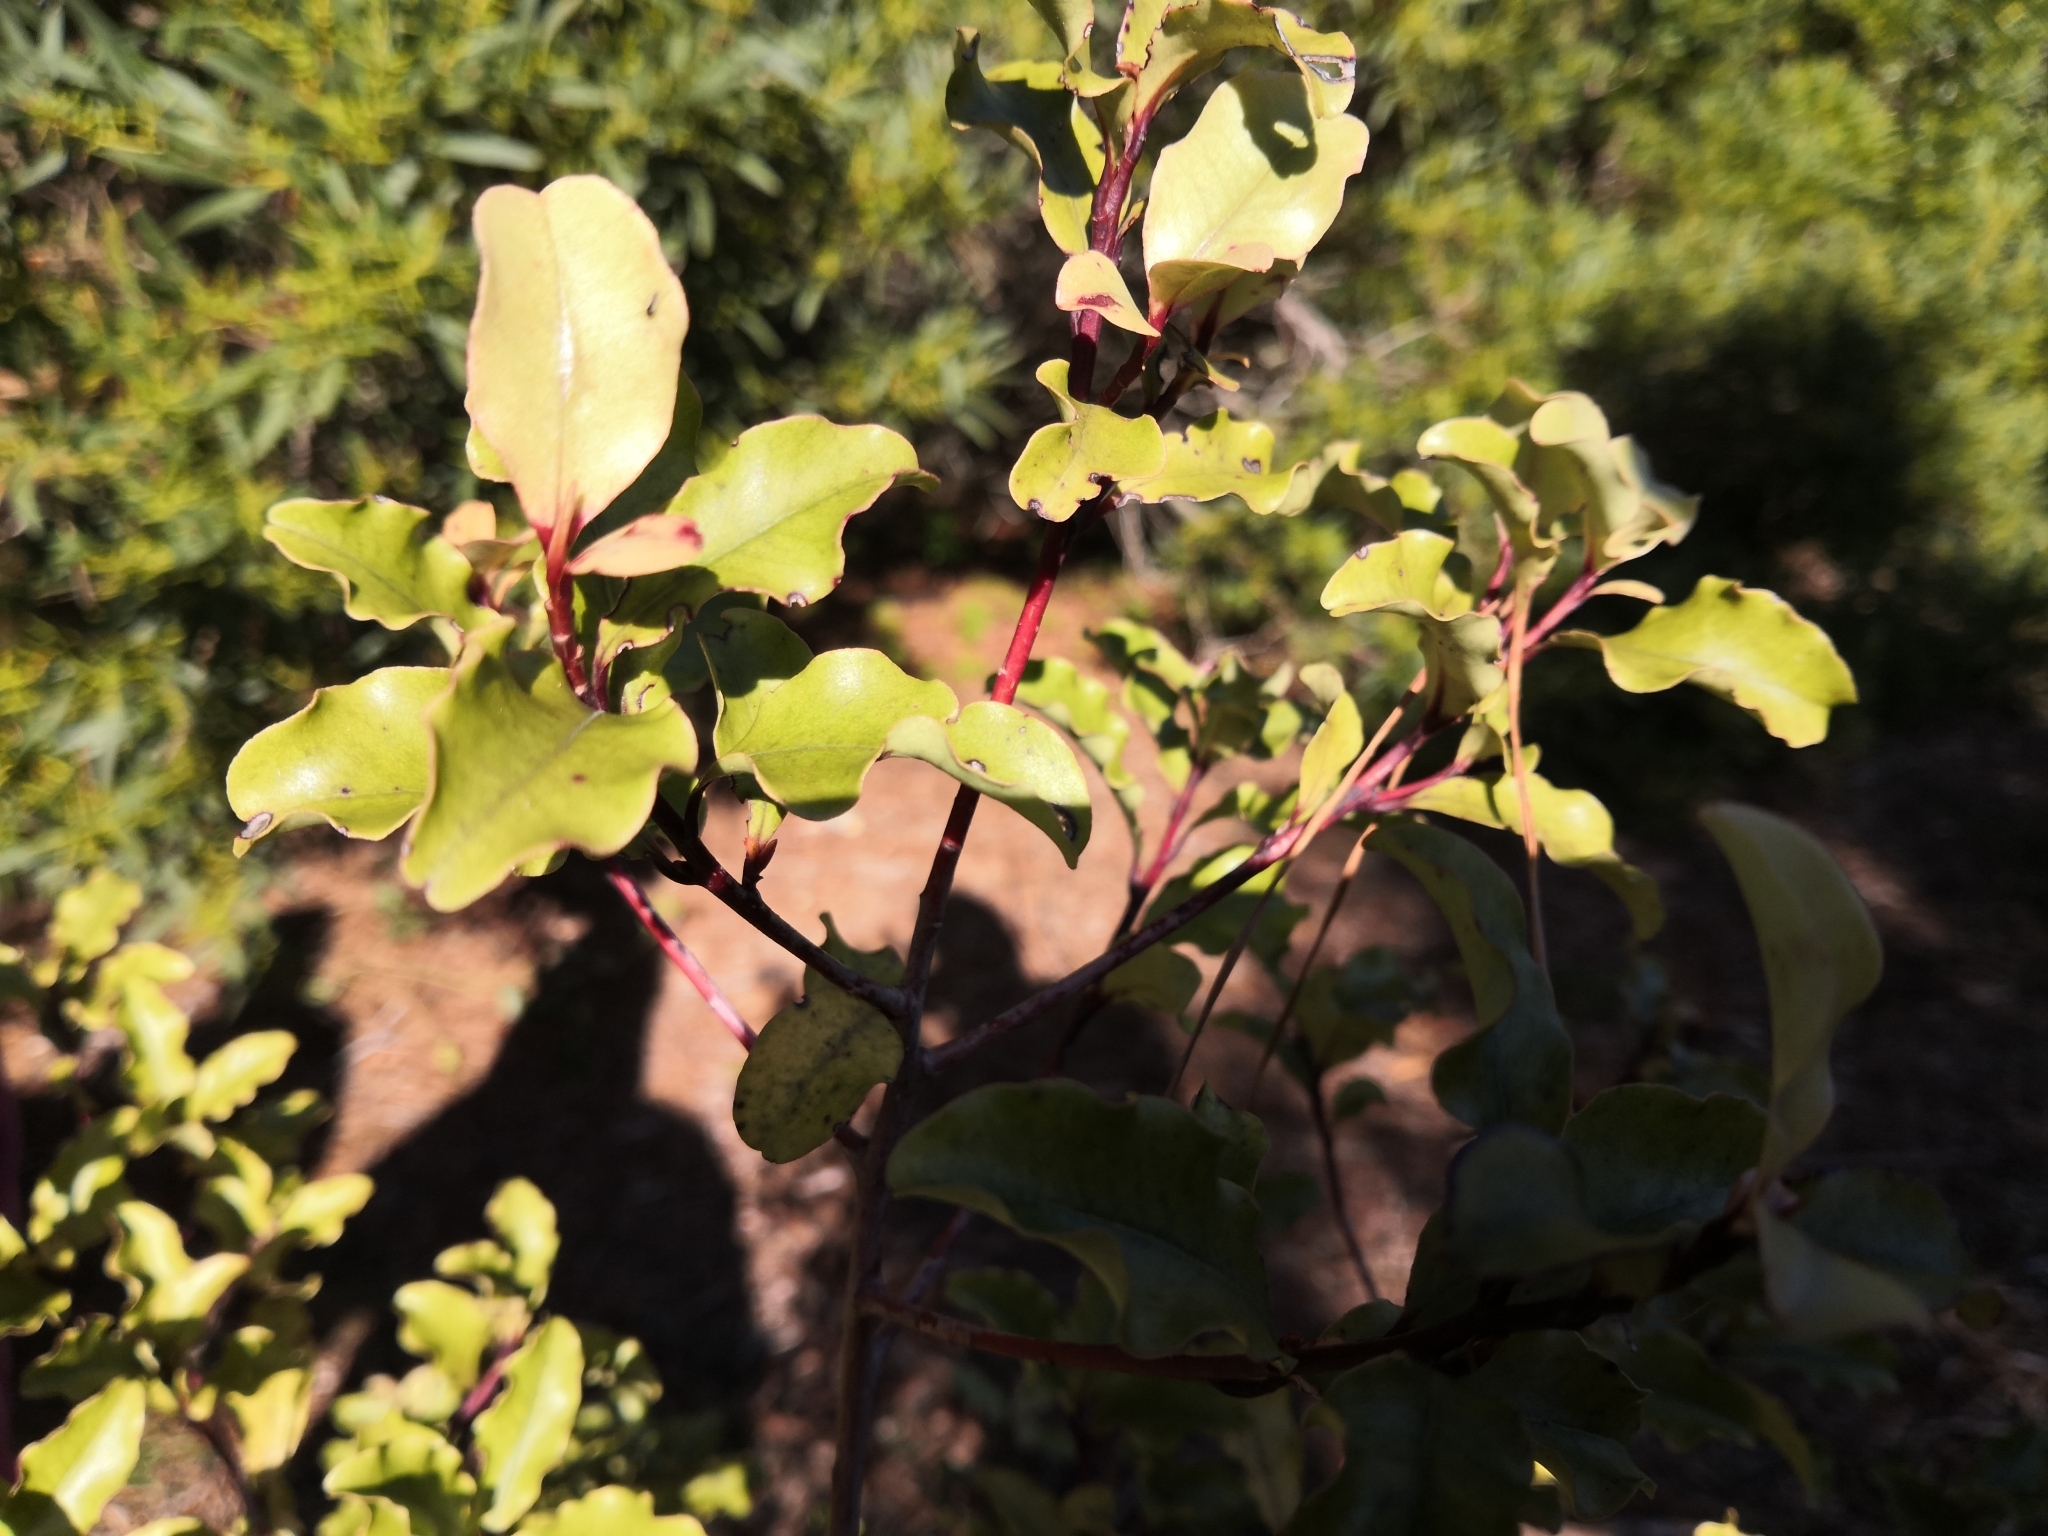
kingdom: Plantae
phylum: Tracheophyta
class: Magnoliopsida
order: Ericales
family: Primulaceae
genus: Myrsine
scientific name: Myrsine australis
